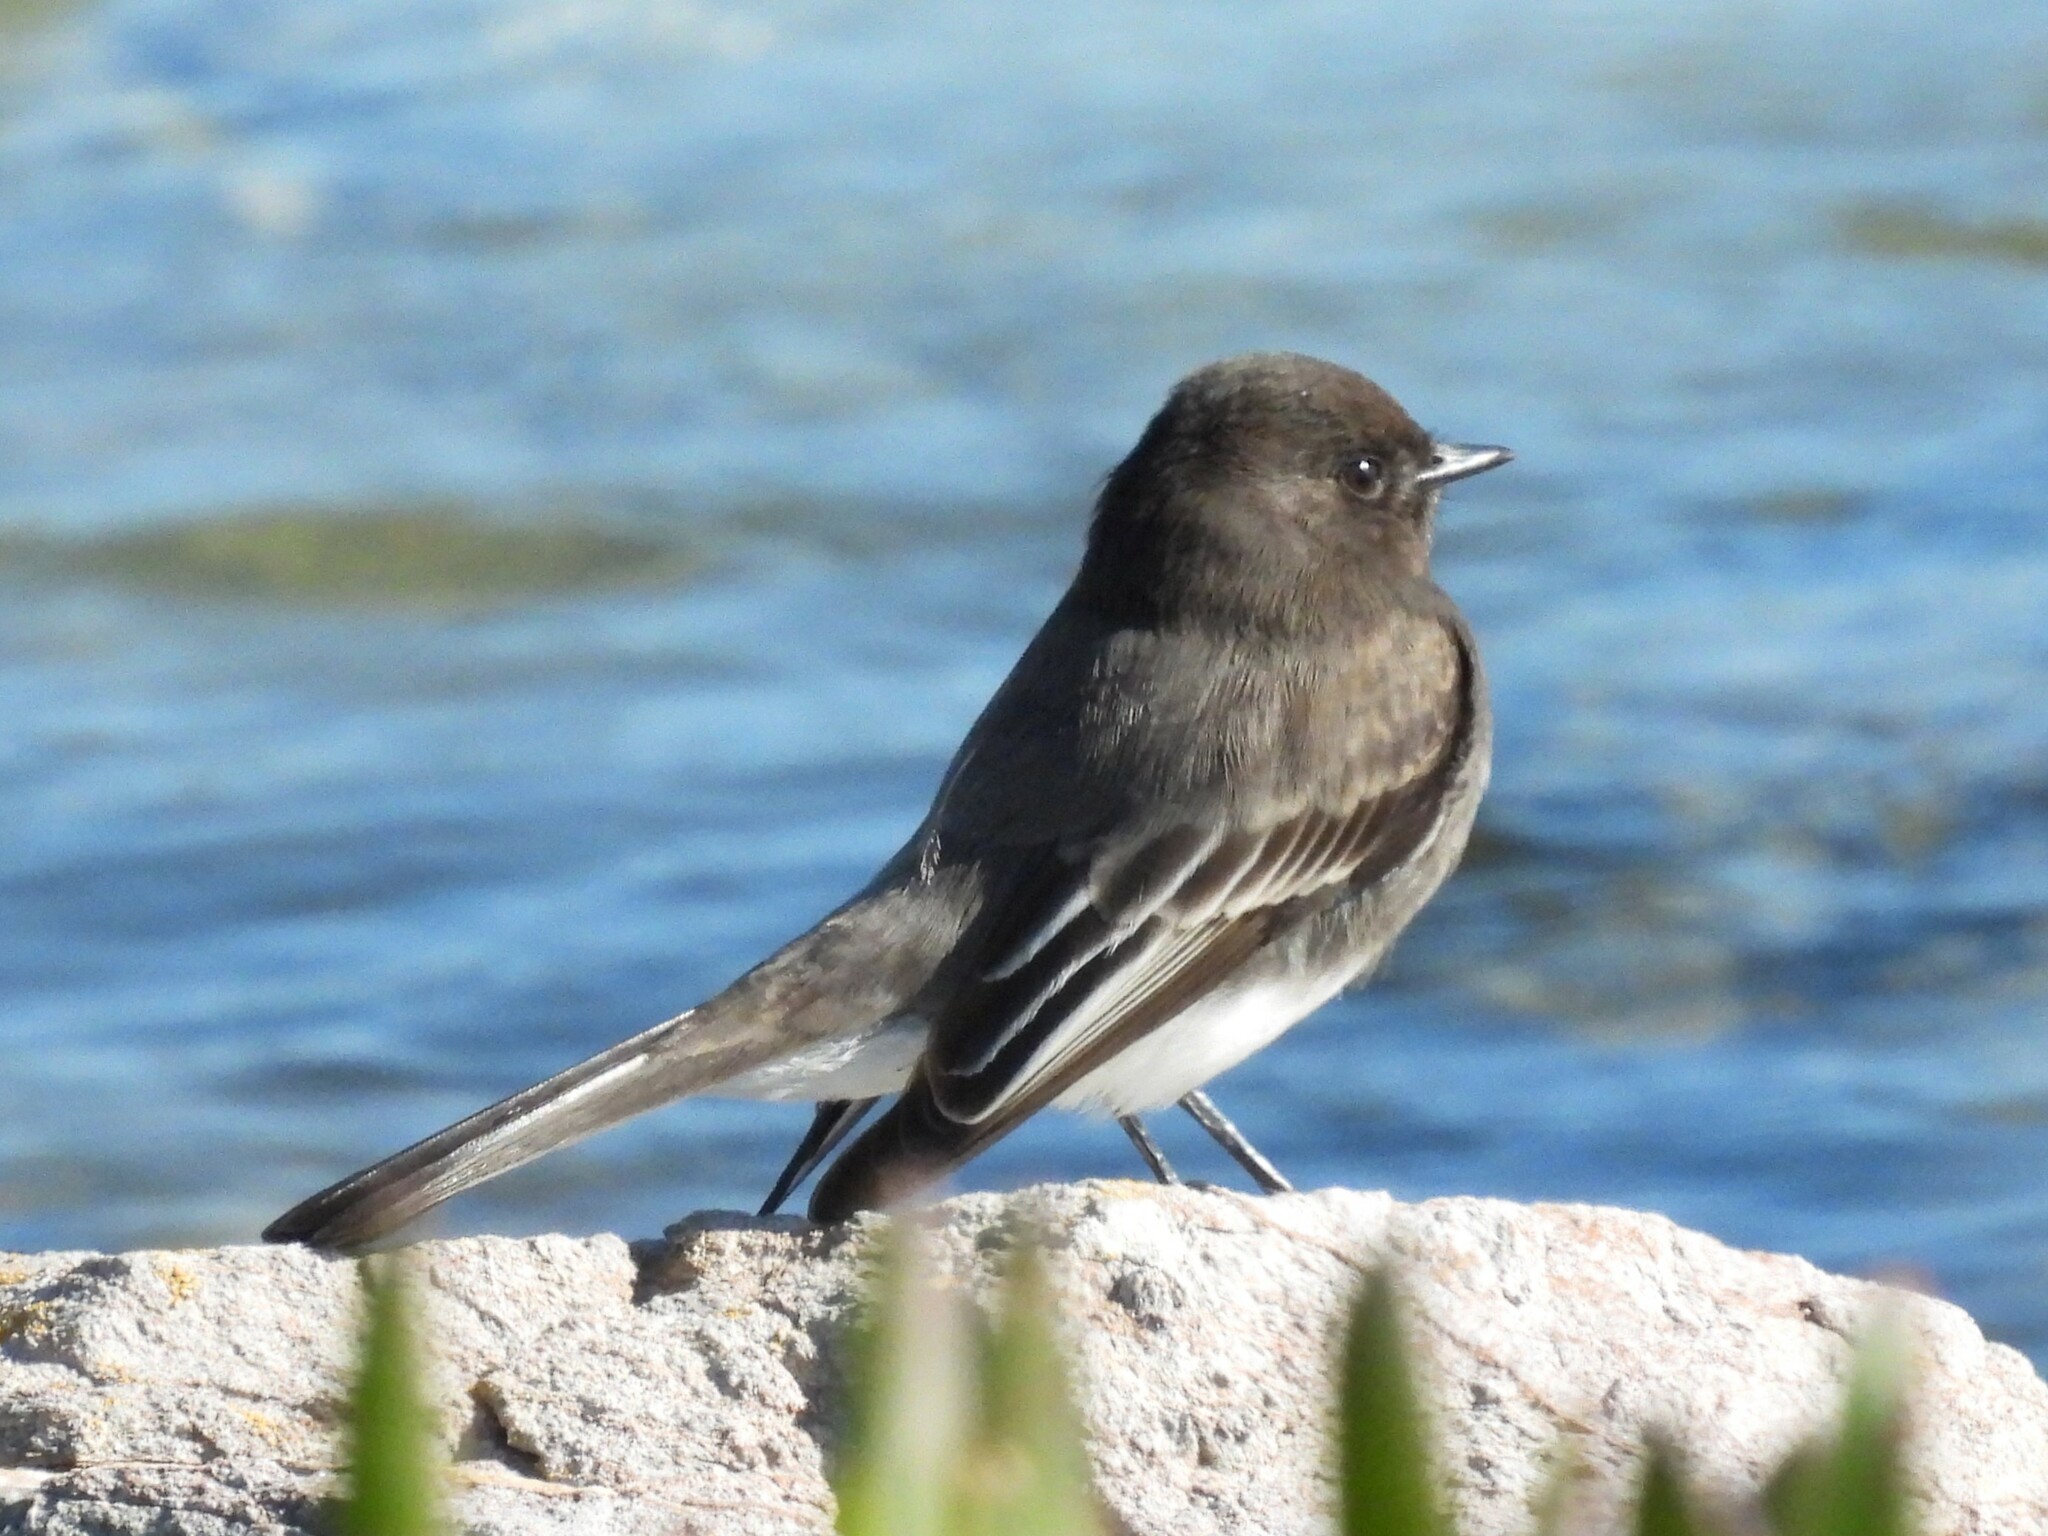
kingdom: Animalia
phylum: Chordata
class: Aves
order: Passeriformes
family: Tyrannidae
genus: Sayornis
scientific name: Sayornis nigricans
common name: Black phoebe
